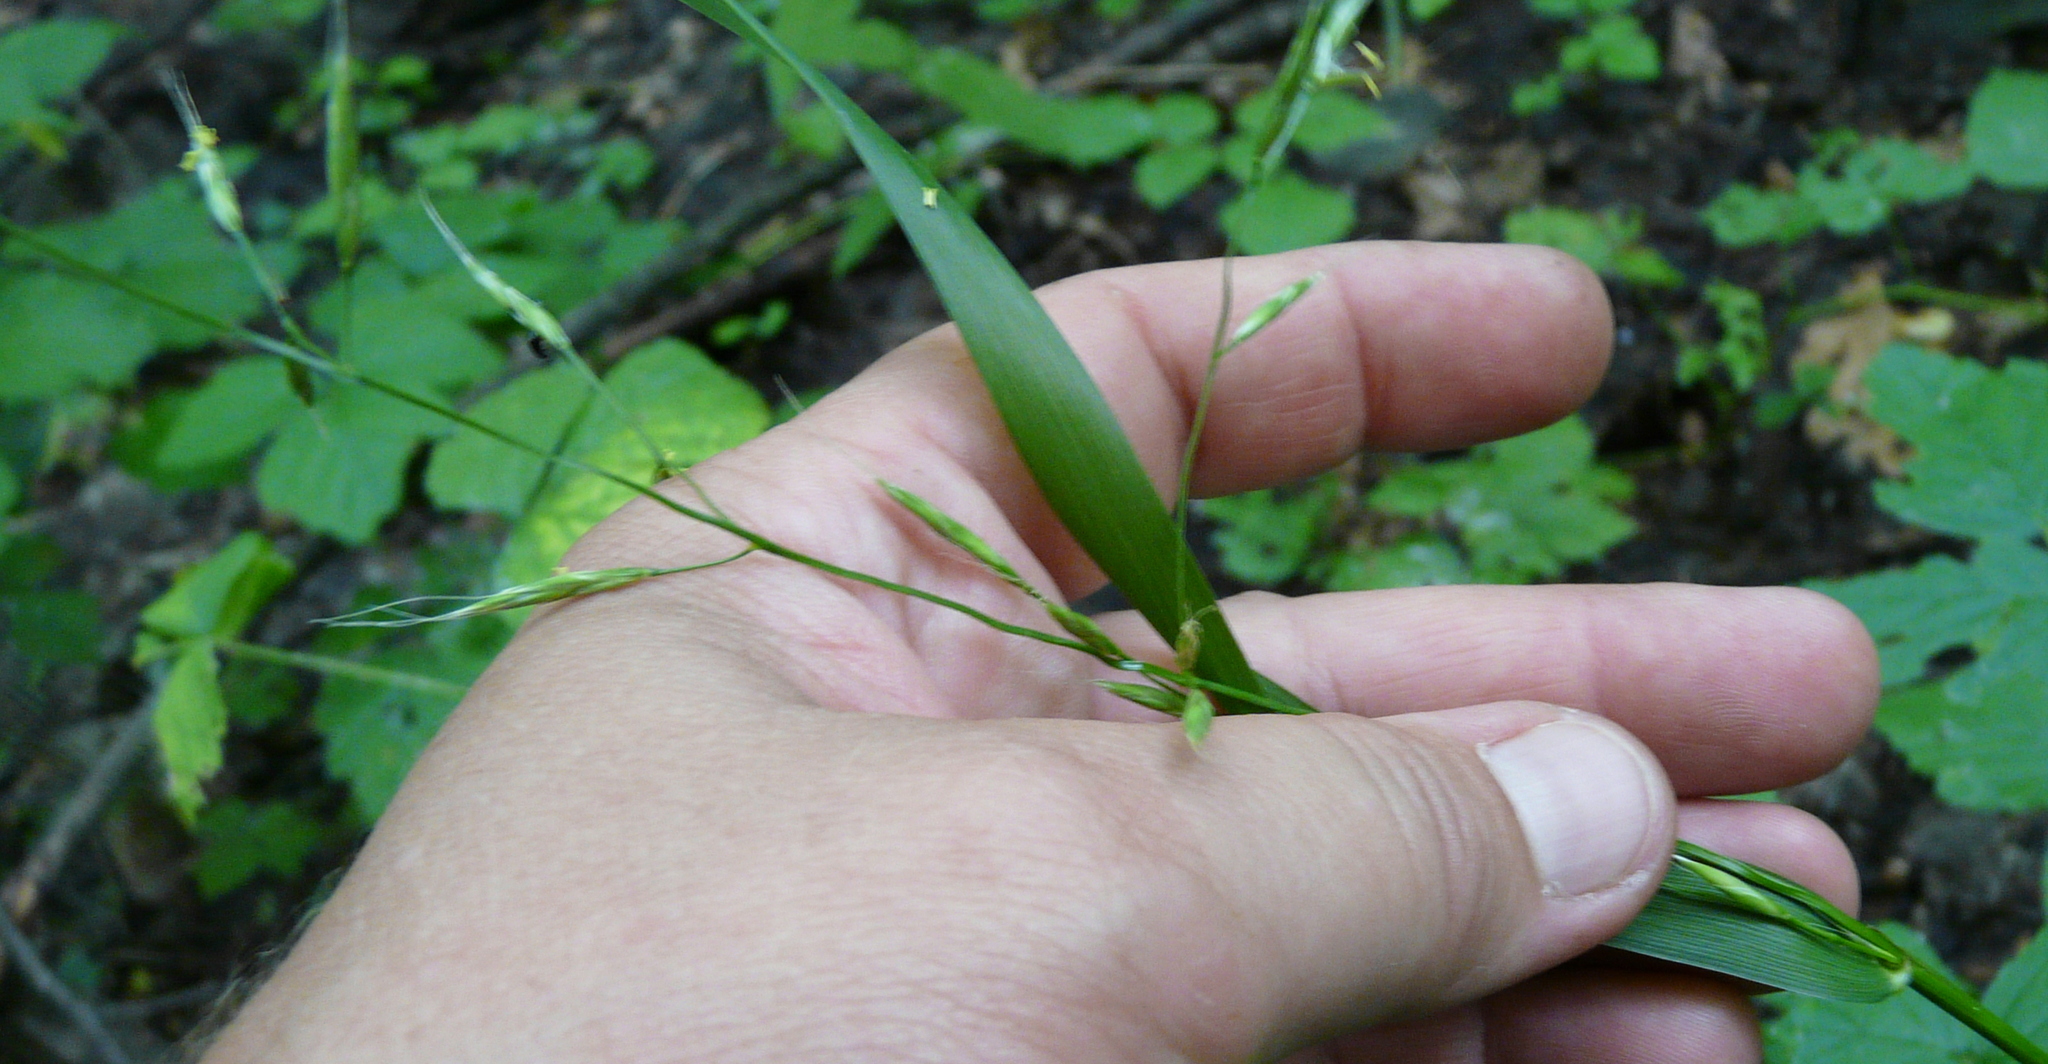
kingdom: Plantae
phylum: Tracheophyta
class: Liliopsida
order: Poales
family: Poaceae
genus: Lolium
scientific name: Lolium giganteum
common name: Giant fescue
